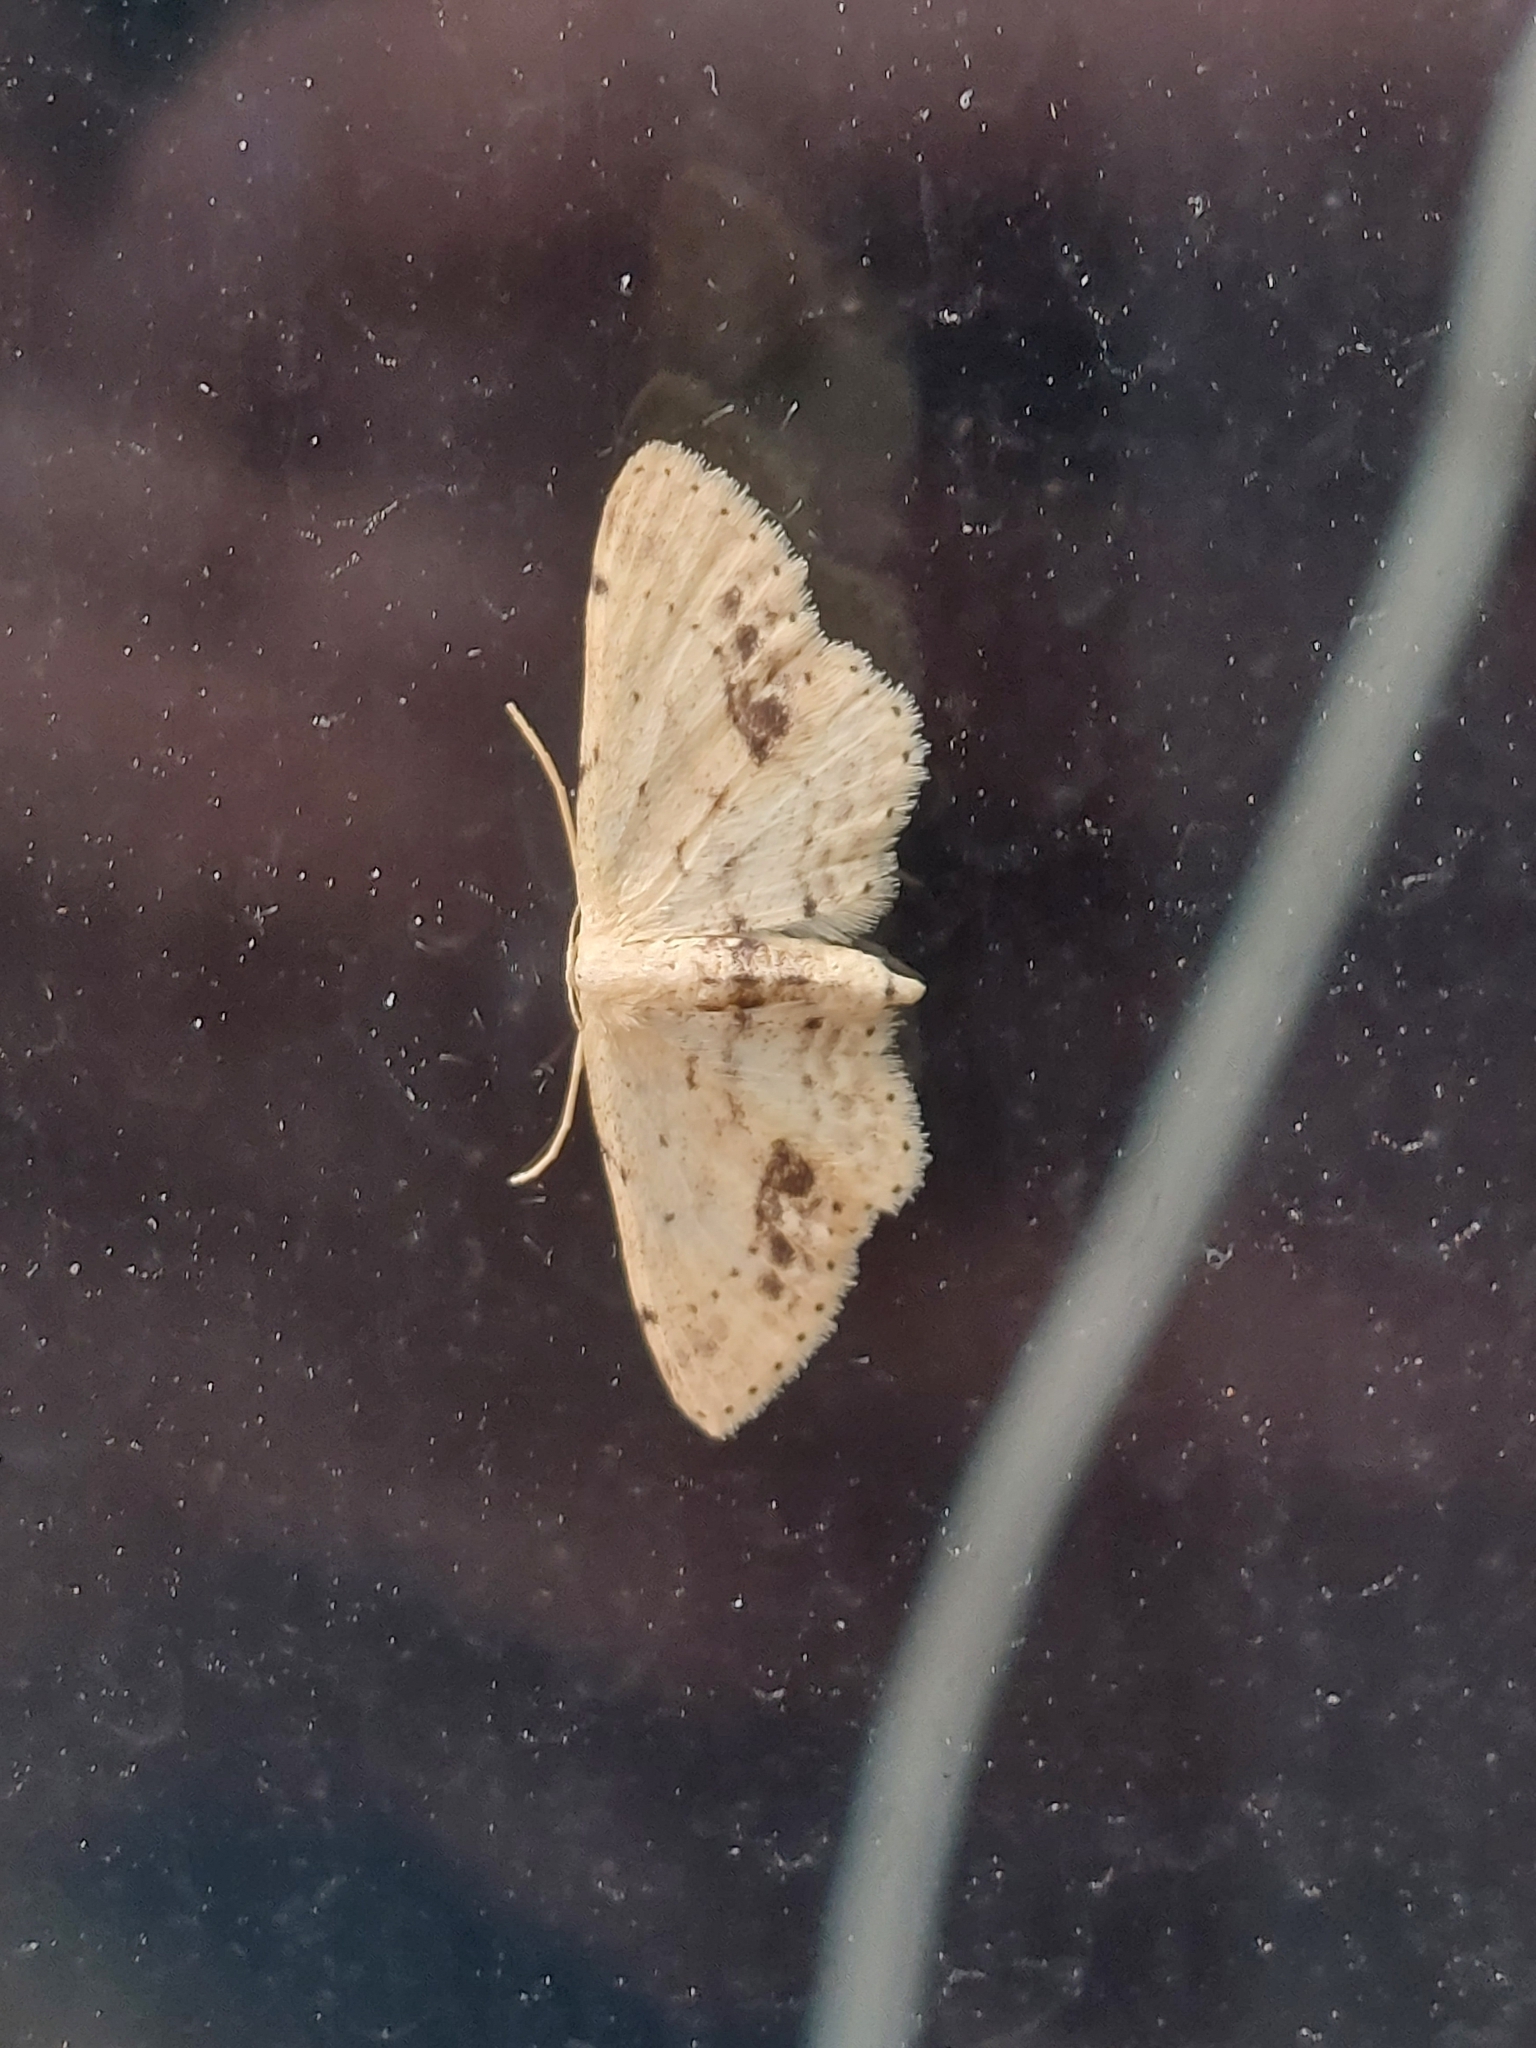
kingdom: Animalia
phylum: Arthropoda
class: Insecta
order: Lepidoptera
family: Geometridae
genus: Idaea
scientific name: Idaea dimidiata
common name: Single-dotted wave
